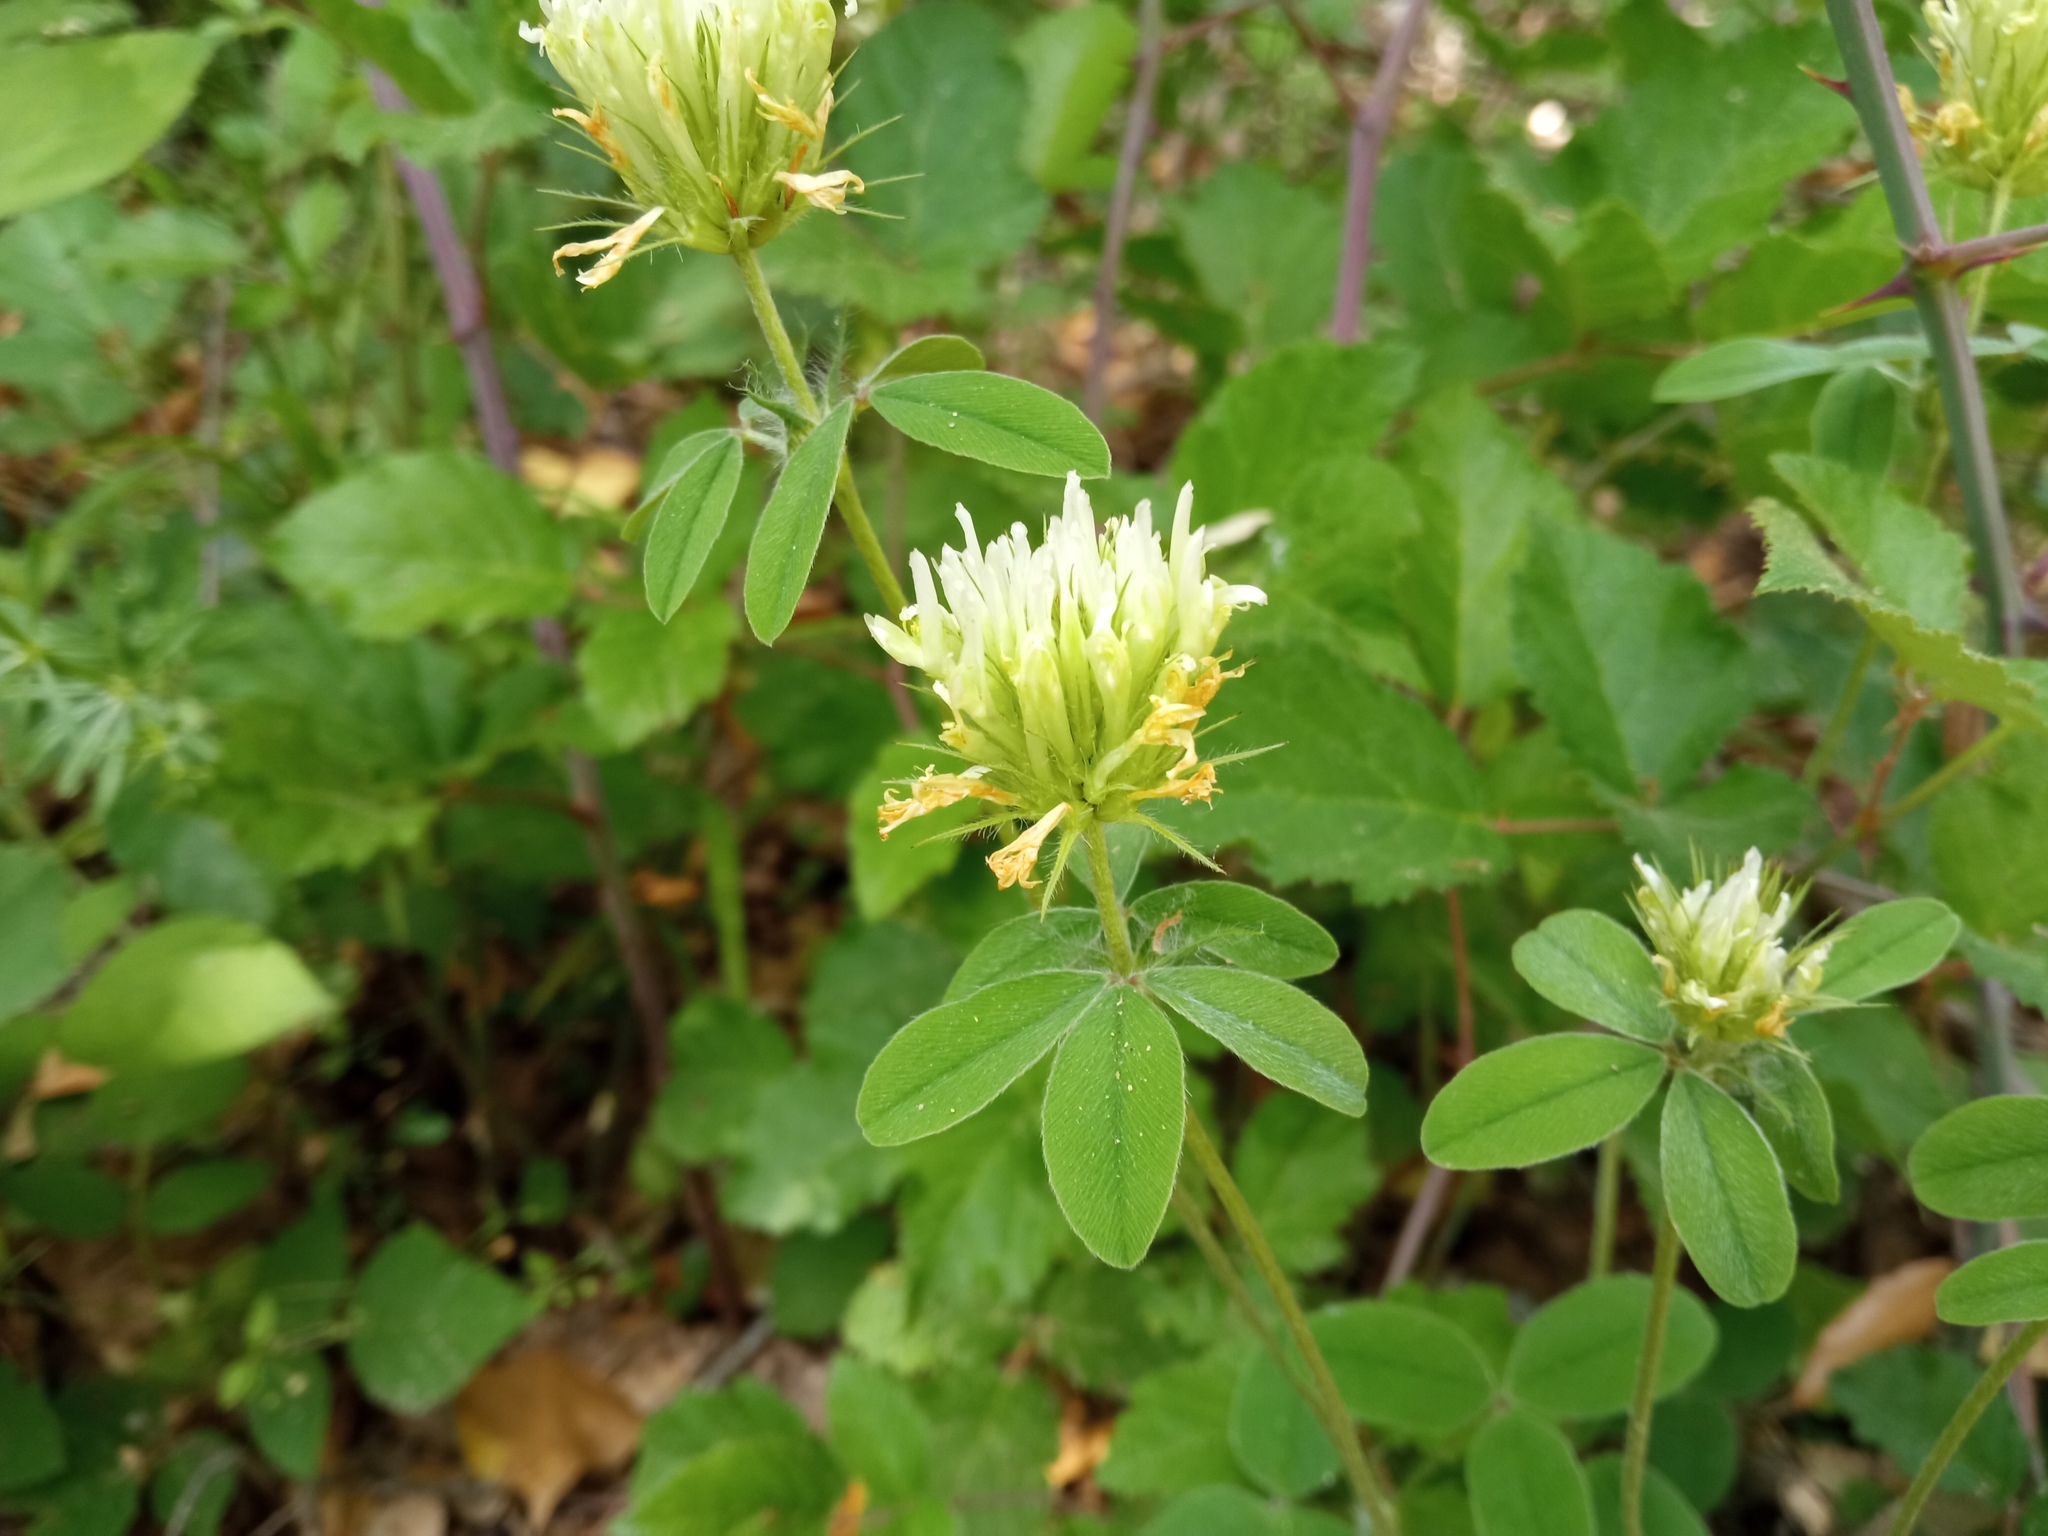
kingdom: Plantae
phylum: Tracheophyta
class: Magnoliopsida
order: Fabales
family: Fabaceae
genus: Trifolium
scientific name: Trifolium ochroleucon
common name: Sulphur clover
